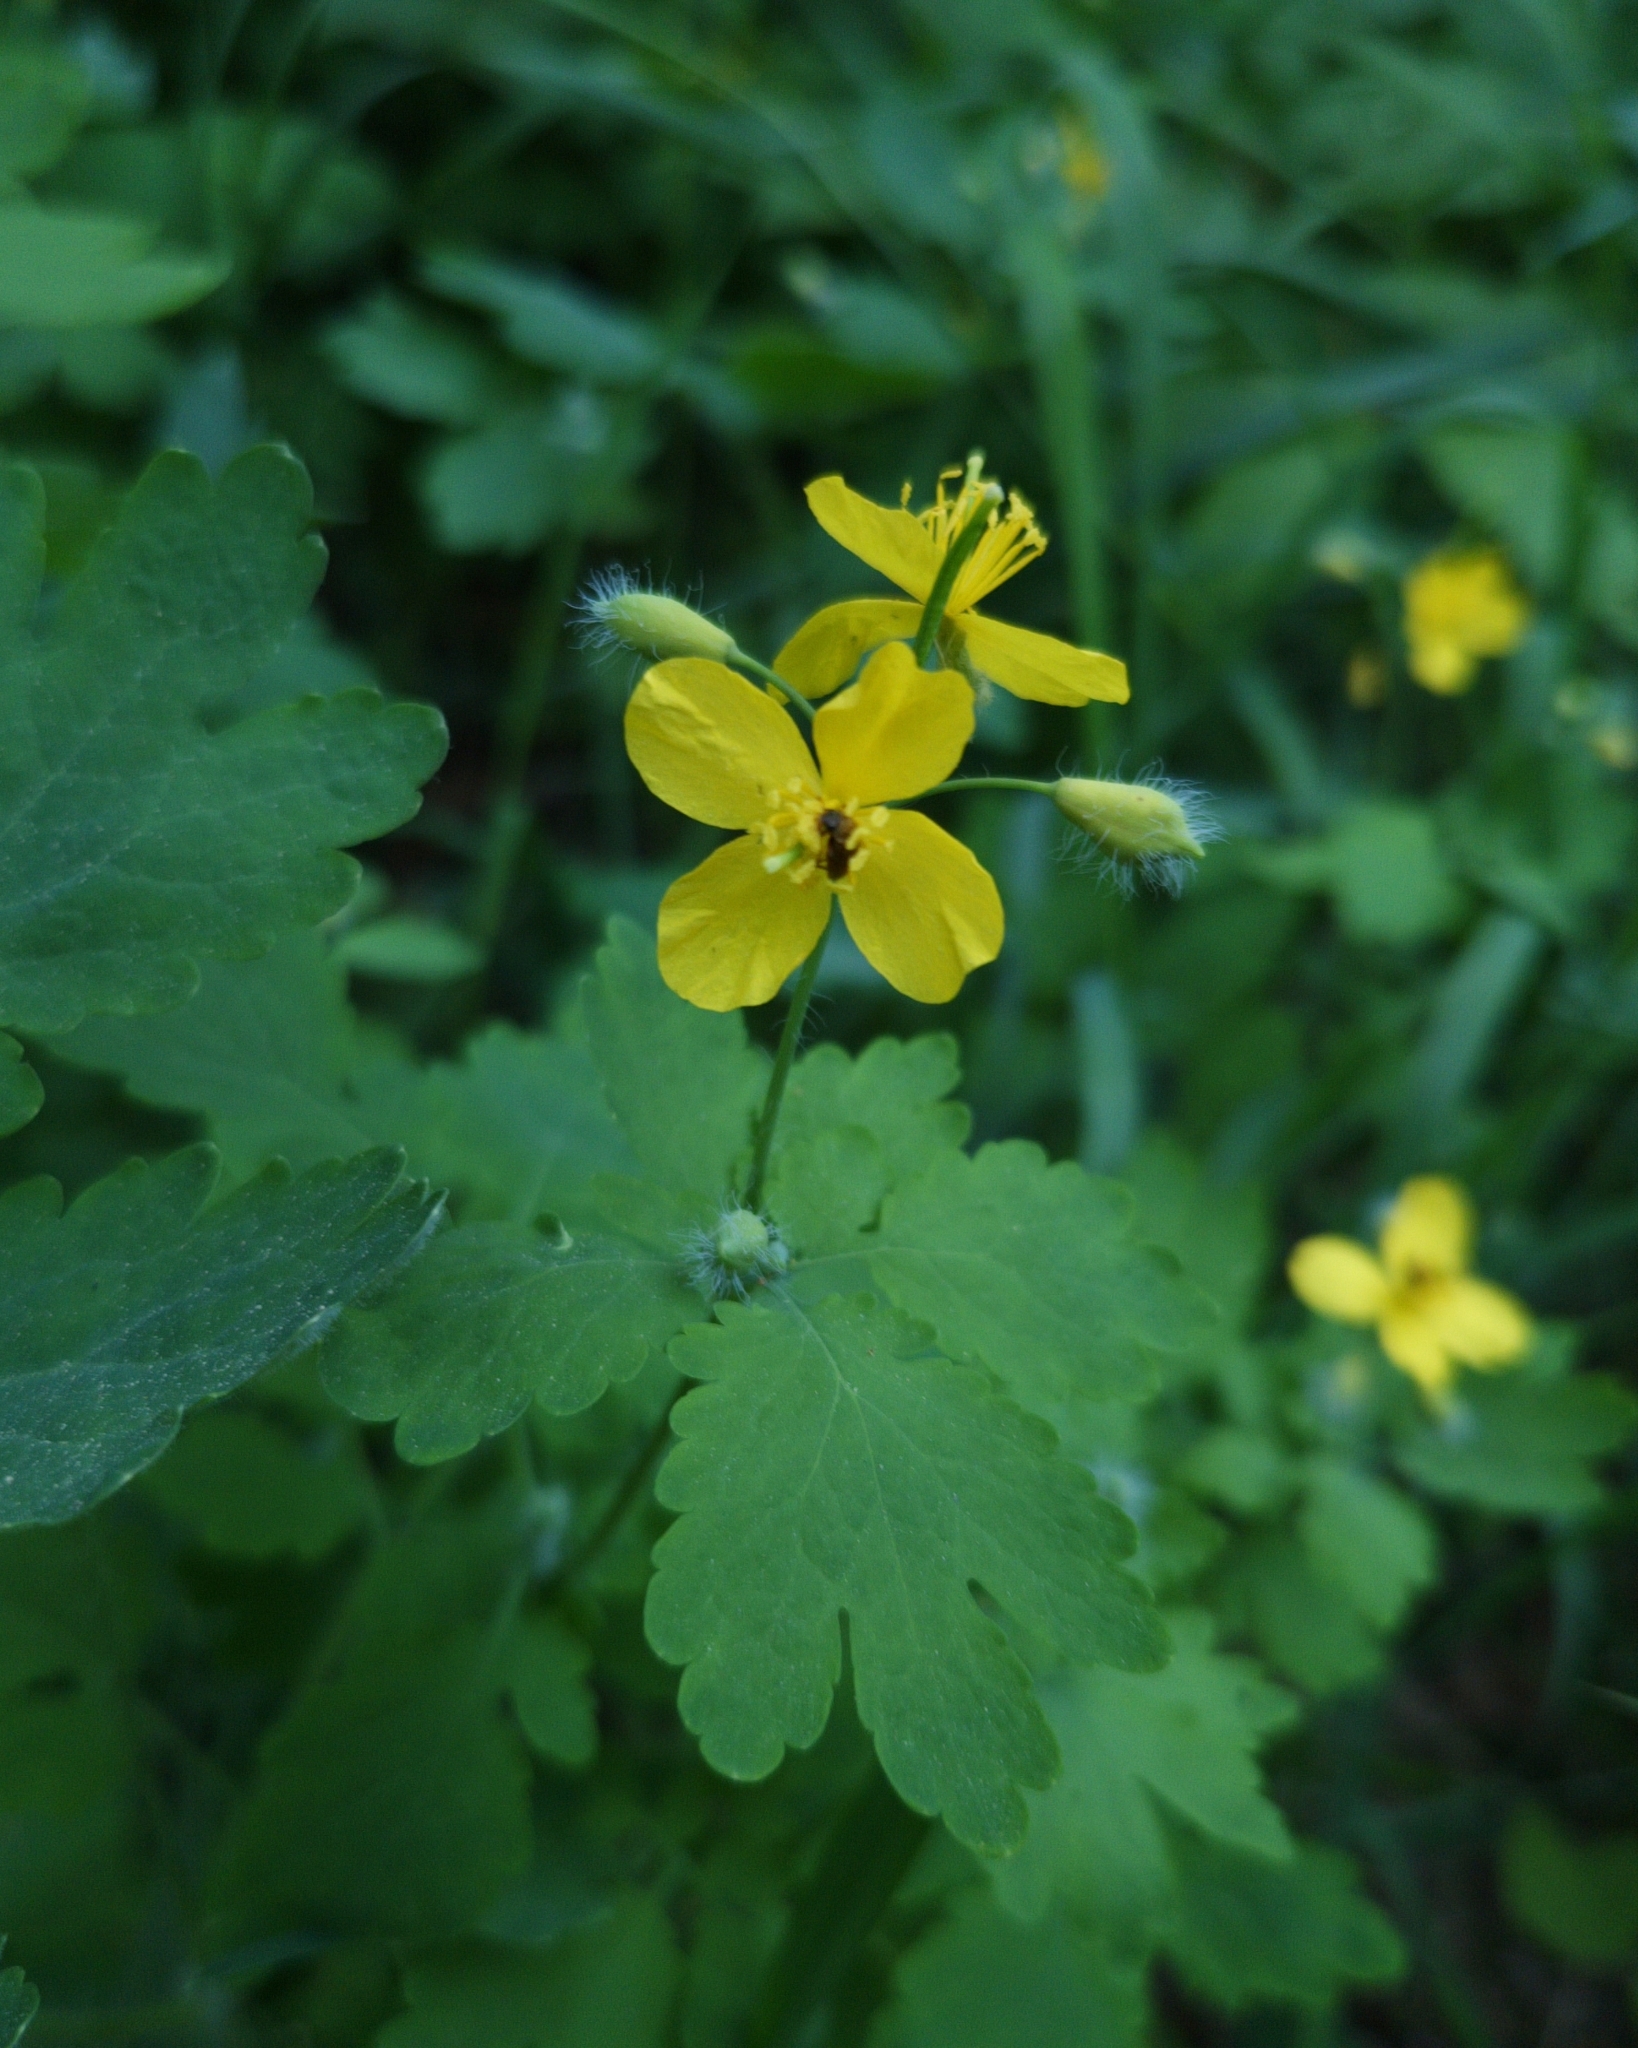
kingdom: Plantae
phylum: Tracheophyta
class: Magnoliopsida
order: Ranunculales
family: Papaveraceae
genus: Chelidonium
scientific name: Chelidonium majus
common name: Greater celandine
